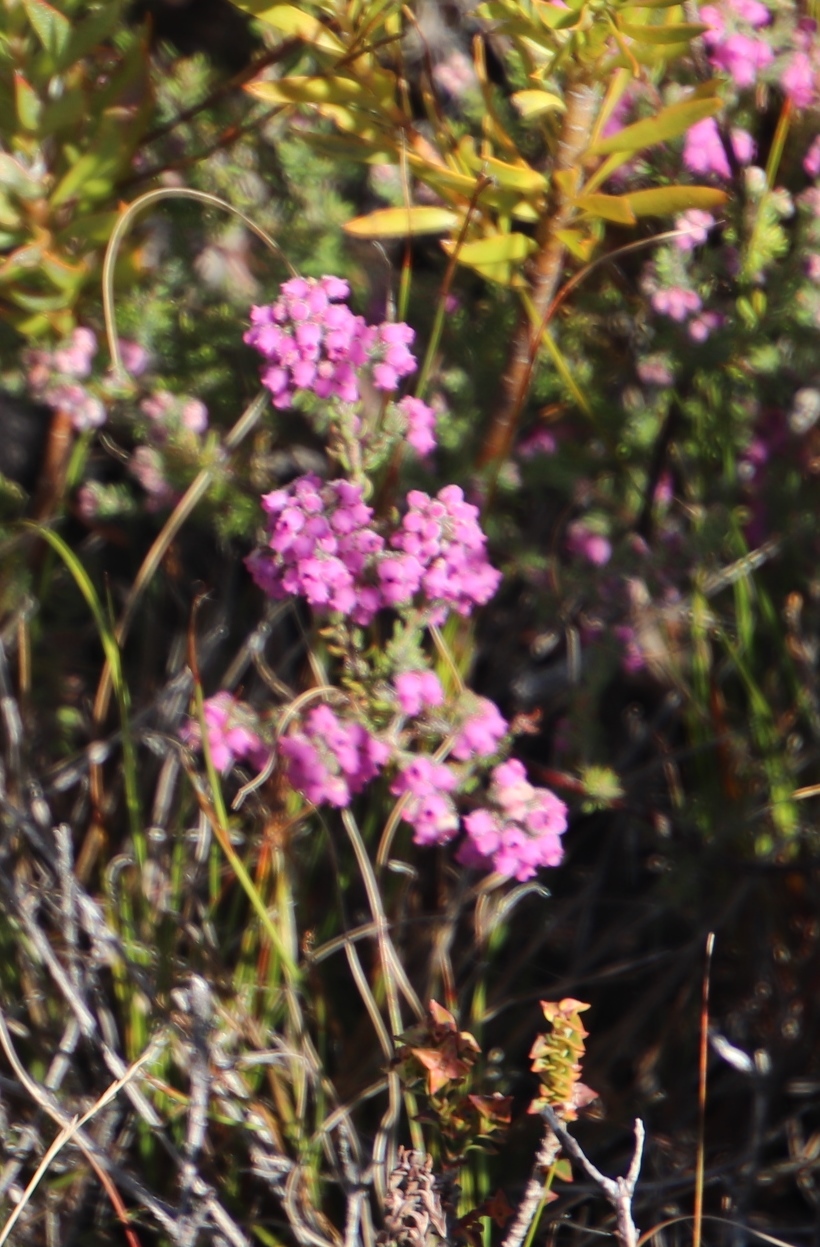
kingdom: Plantae
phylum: Tracheophyta
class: Magnoliopsida
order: Ericales
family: Ericaceae
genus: Erica
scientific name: Erica mollis
